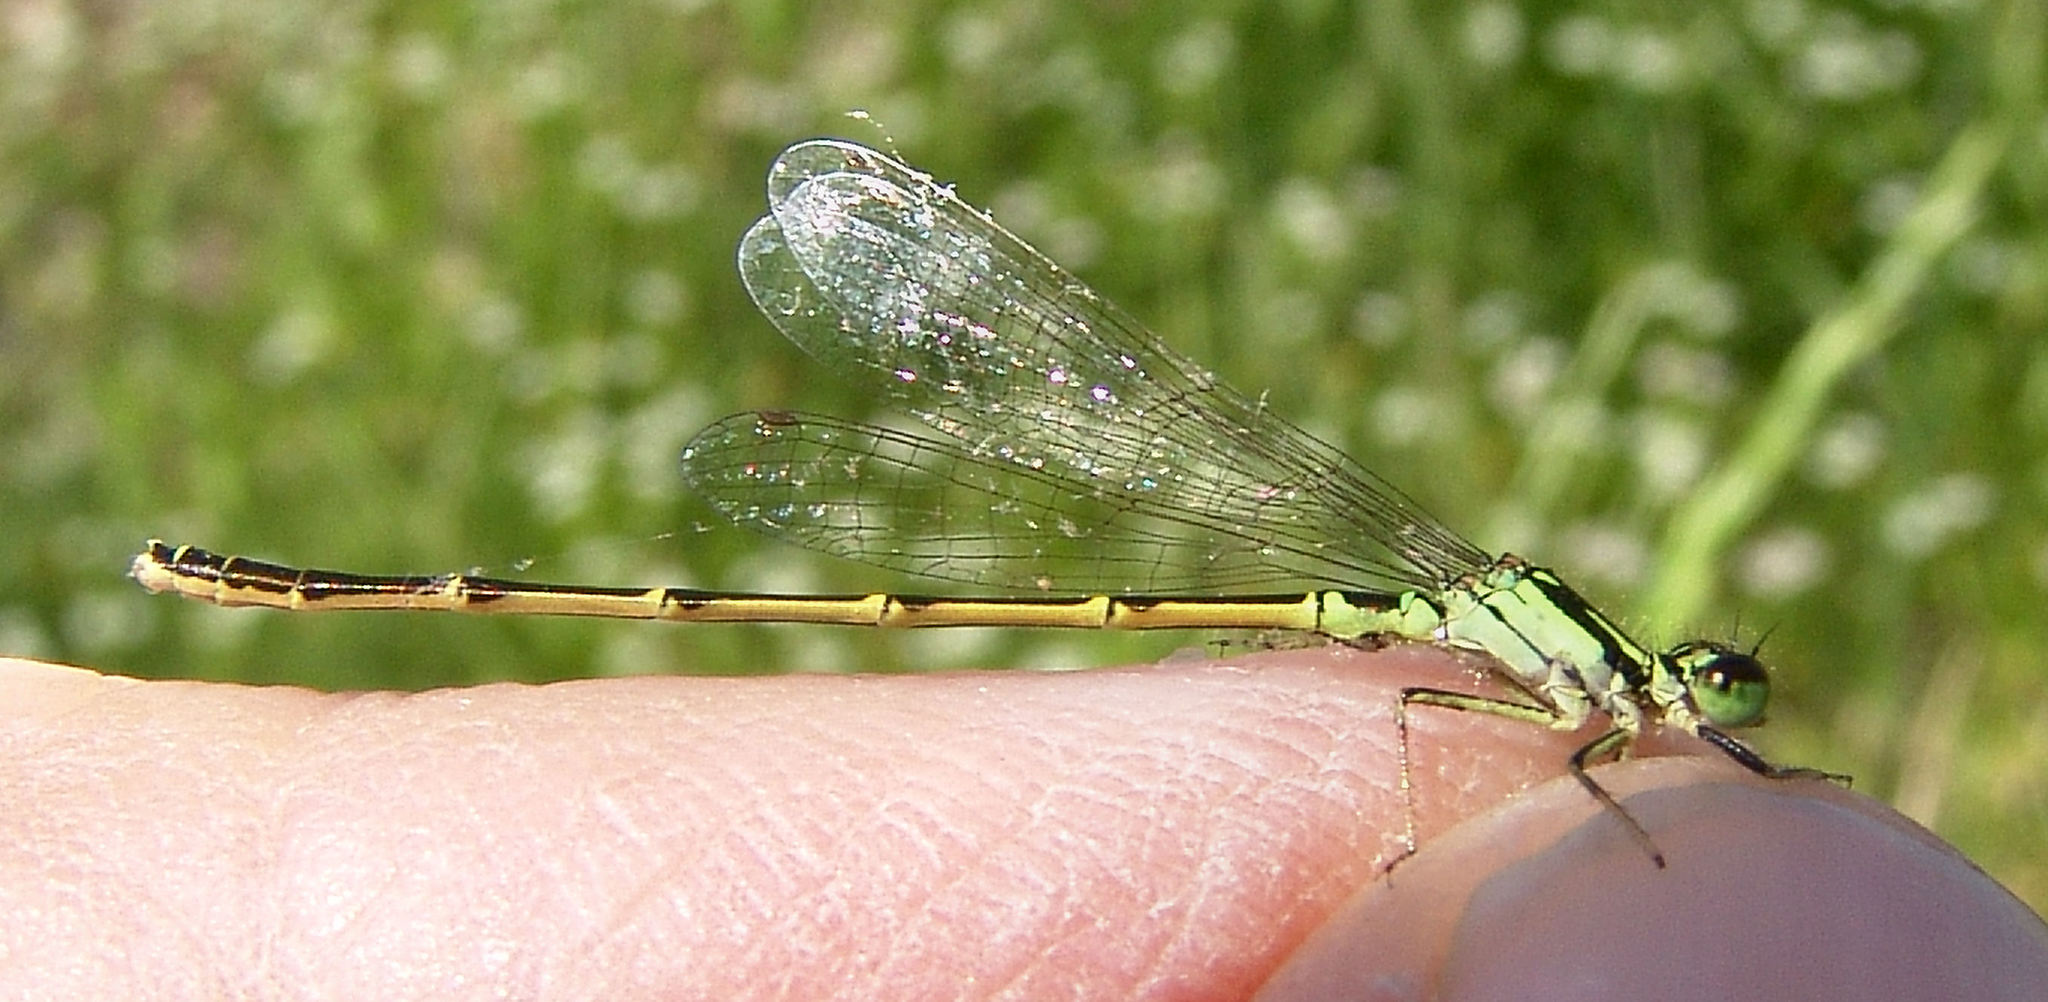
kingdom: Animalia
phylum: Arthropoda
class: Insecta
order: Odonata
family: Coenagrionidae
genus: Ischnura
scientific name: Ischnura posita
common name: Fragile forktail
